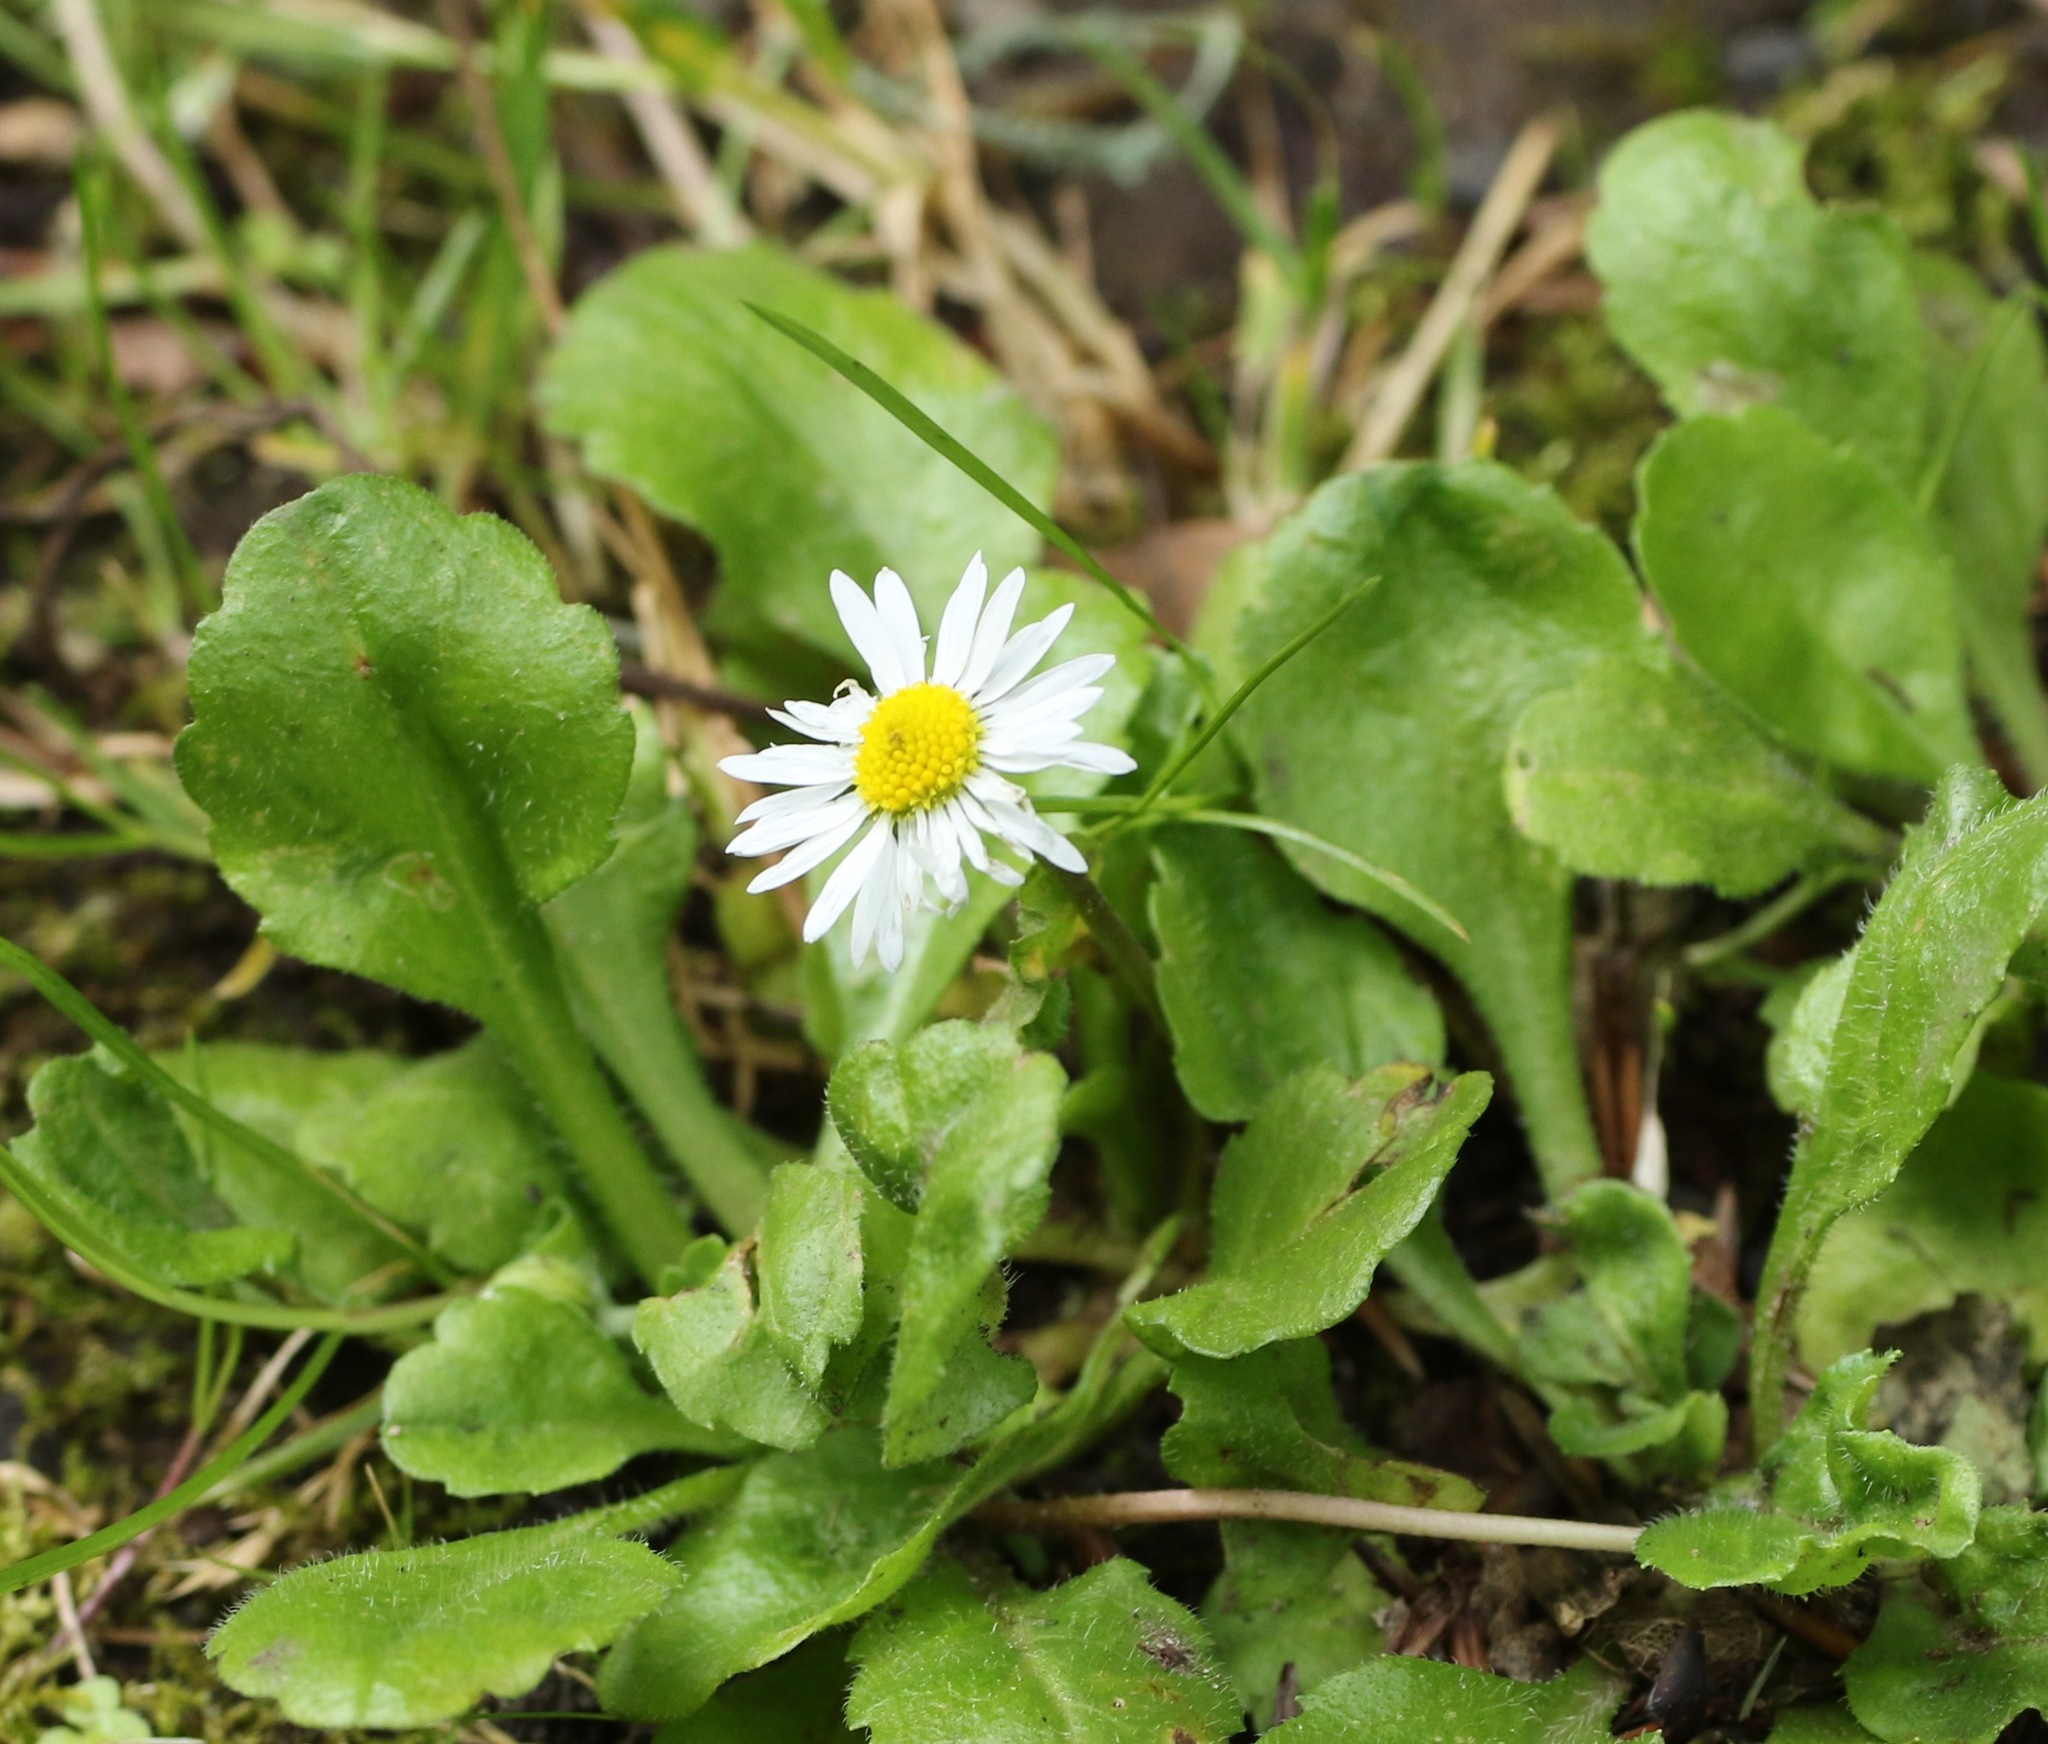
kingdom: Plantae
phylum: Tracheophyta
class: Magnoliopsida
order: Asterales
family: Asteraceae
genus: Bellis
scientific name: Bellis perennis
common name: Lawndaisy
